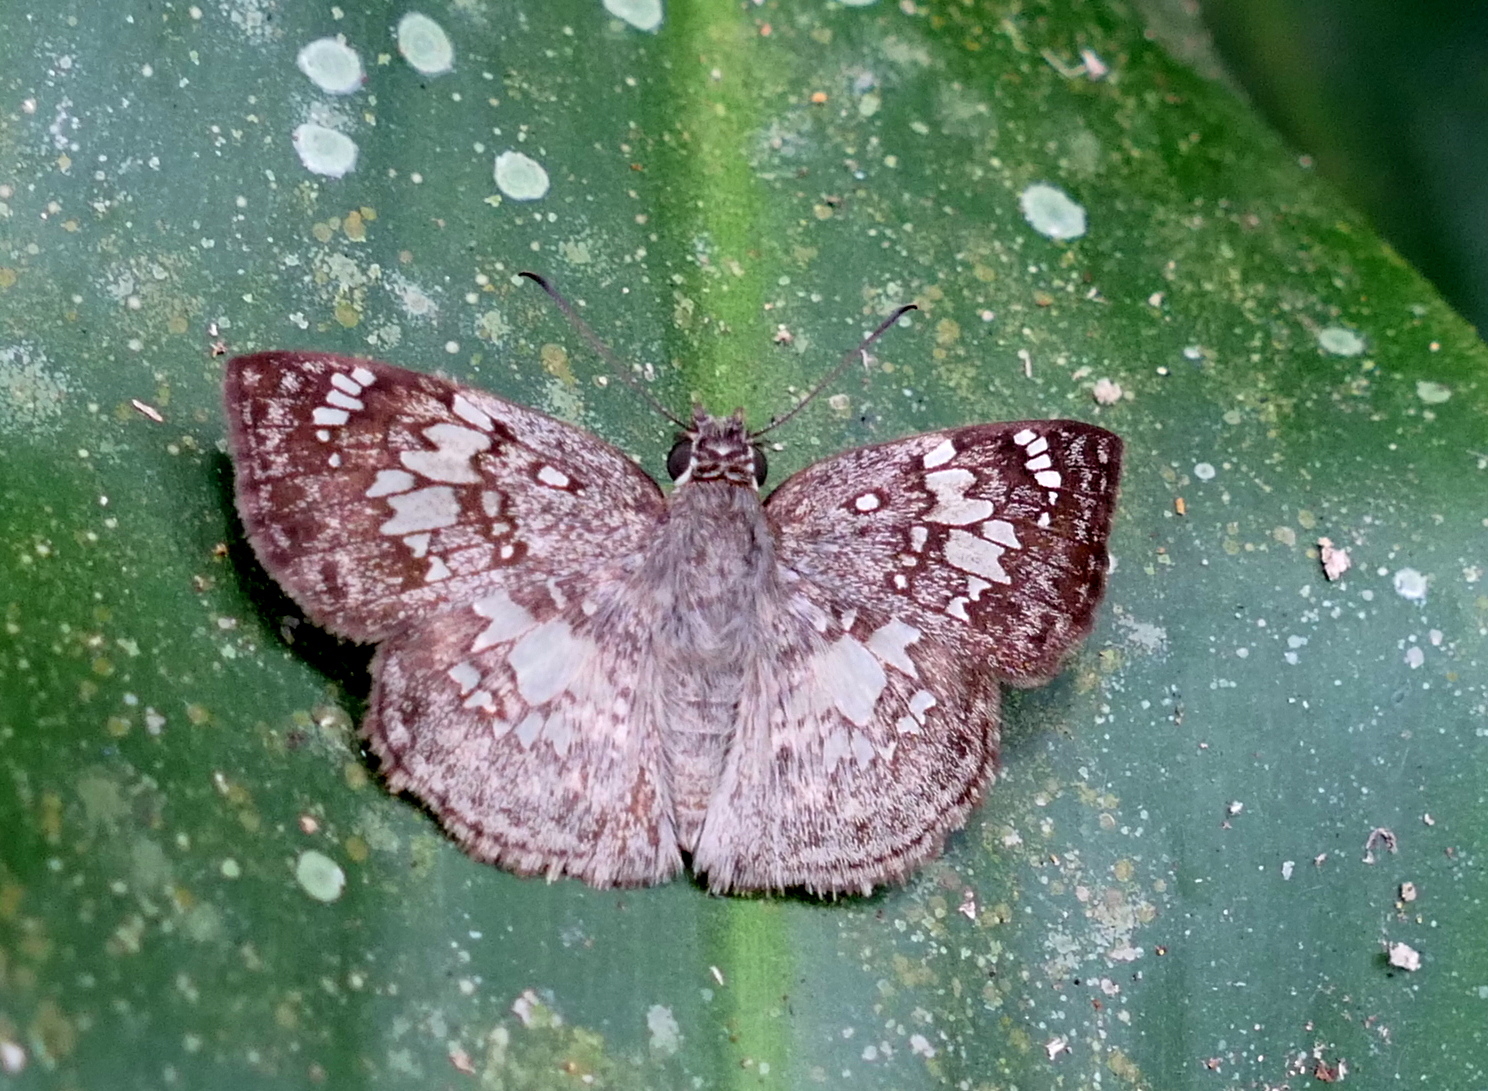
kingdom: Animalia
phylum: Arthropoda
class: Insecta
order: Lepidoptera
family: Hesperiidae
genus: Xenophanes
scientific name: Xenophanes tryxus
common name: Glassy-winged skipper
